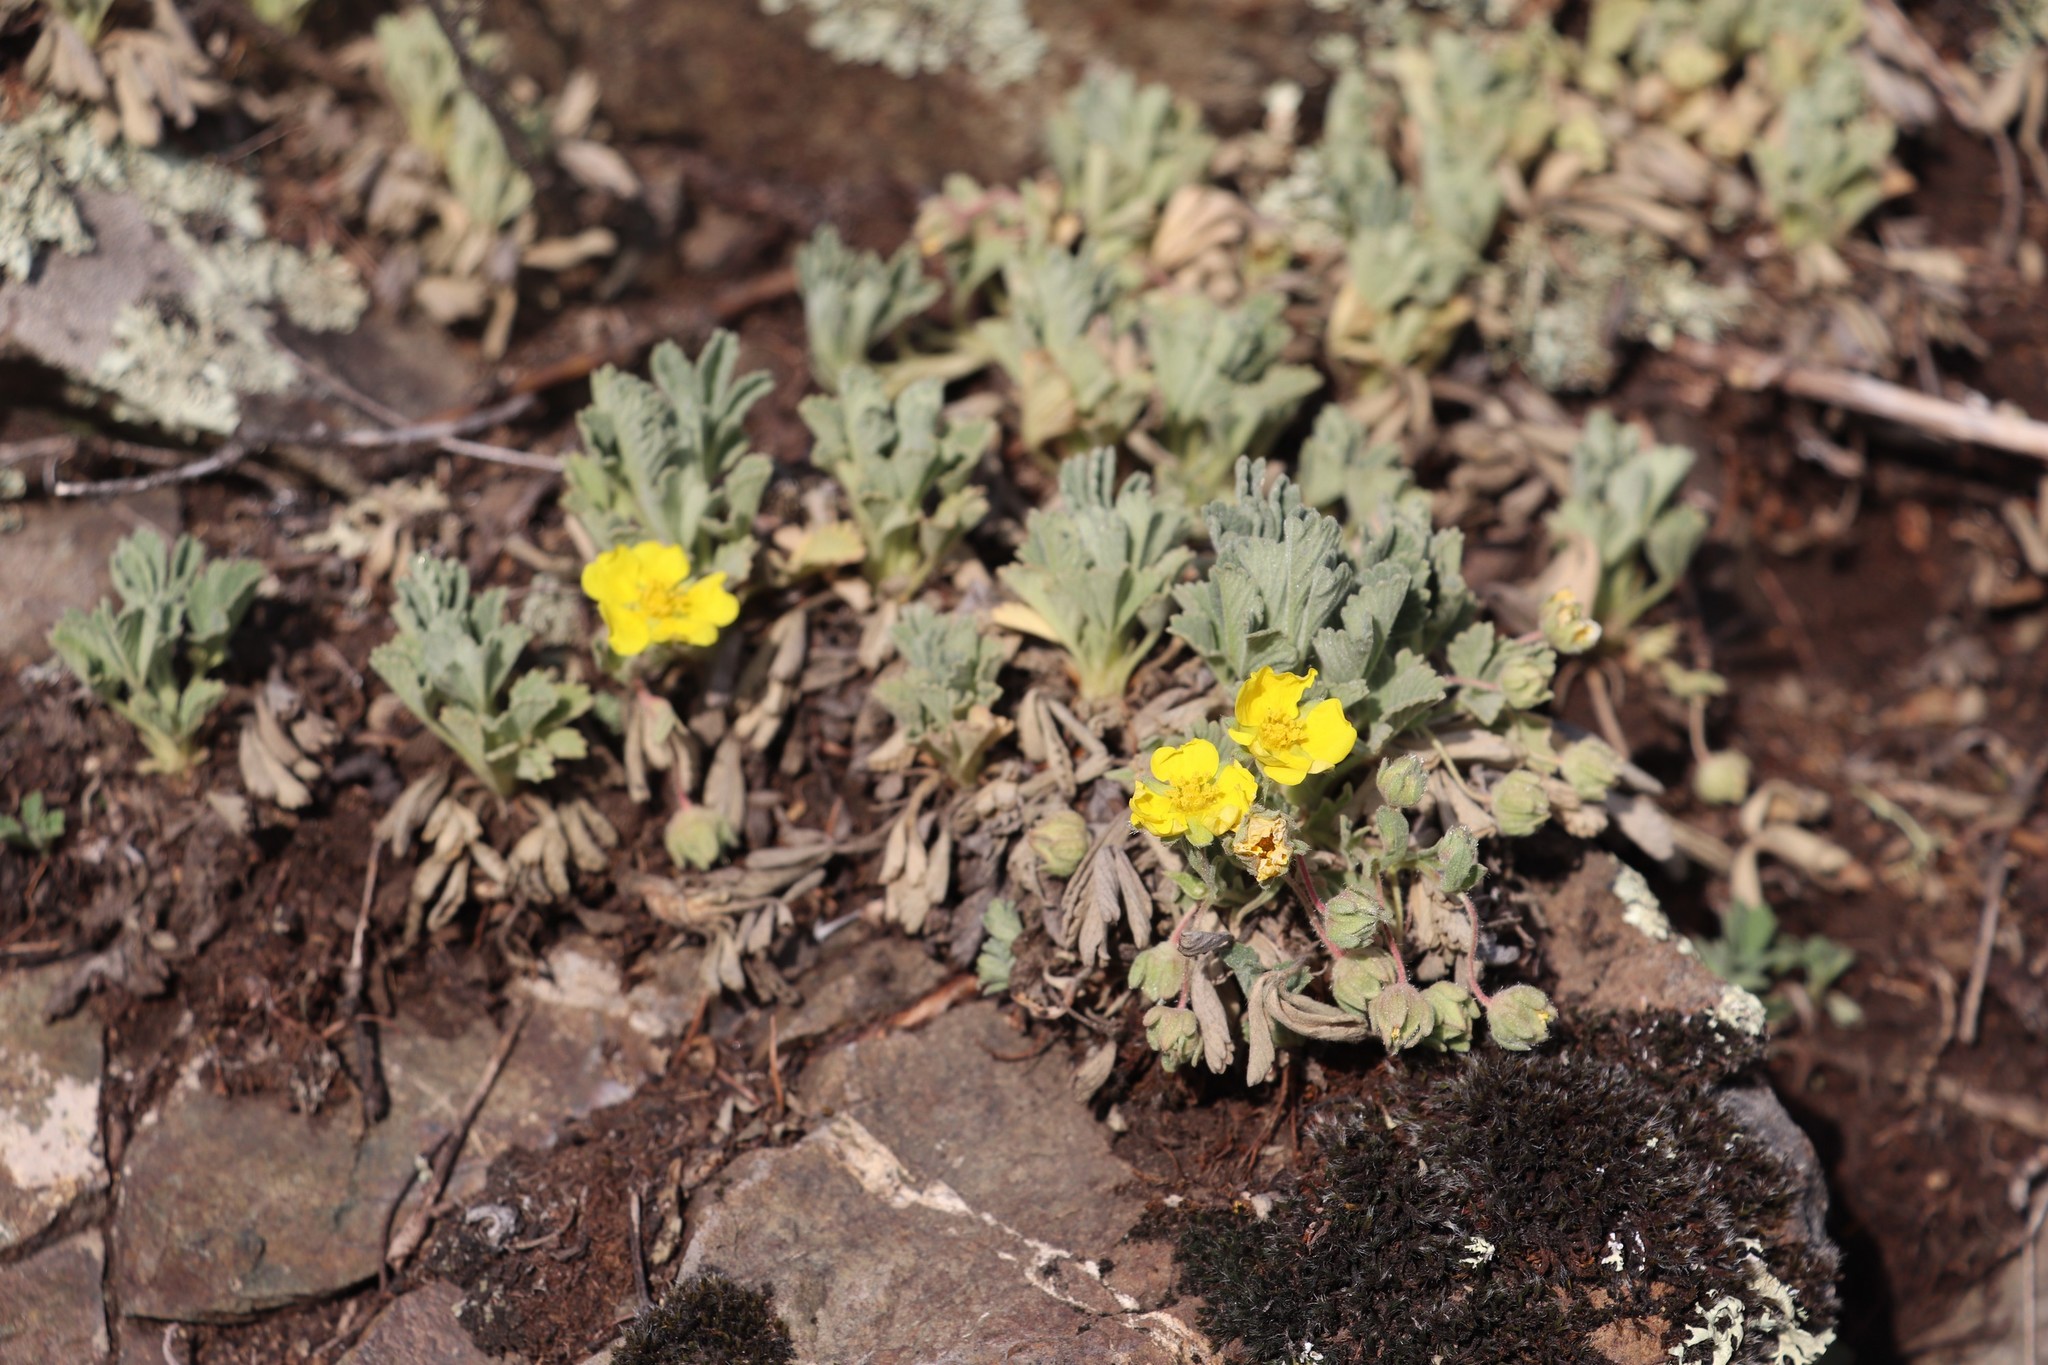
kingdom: Plantae
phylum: Tracheophyta
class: Magnoliopsida
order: Rosales
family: Rosaceae
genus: Potentilla
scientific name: Potentilla acaulis
